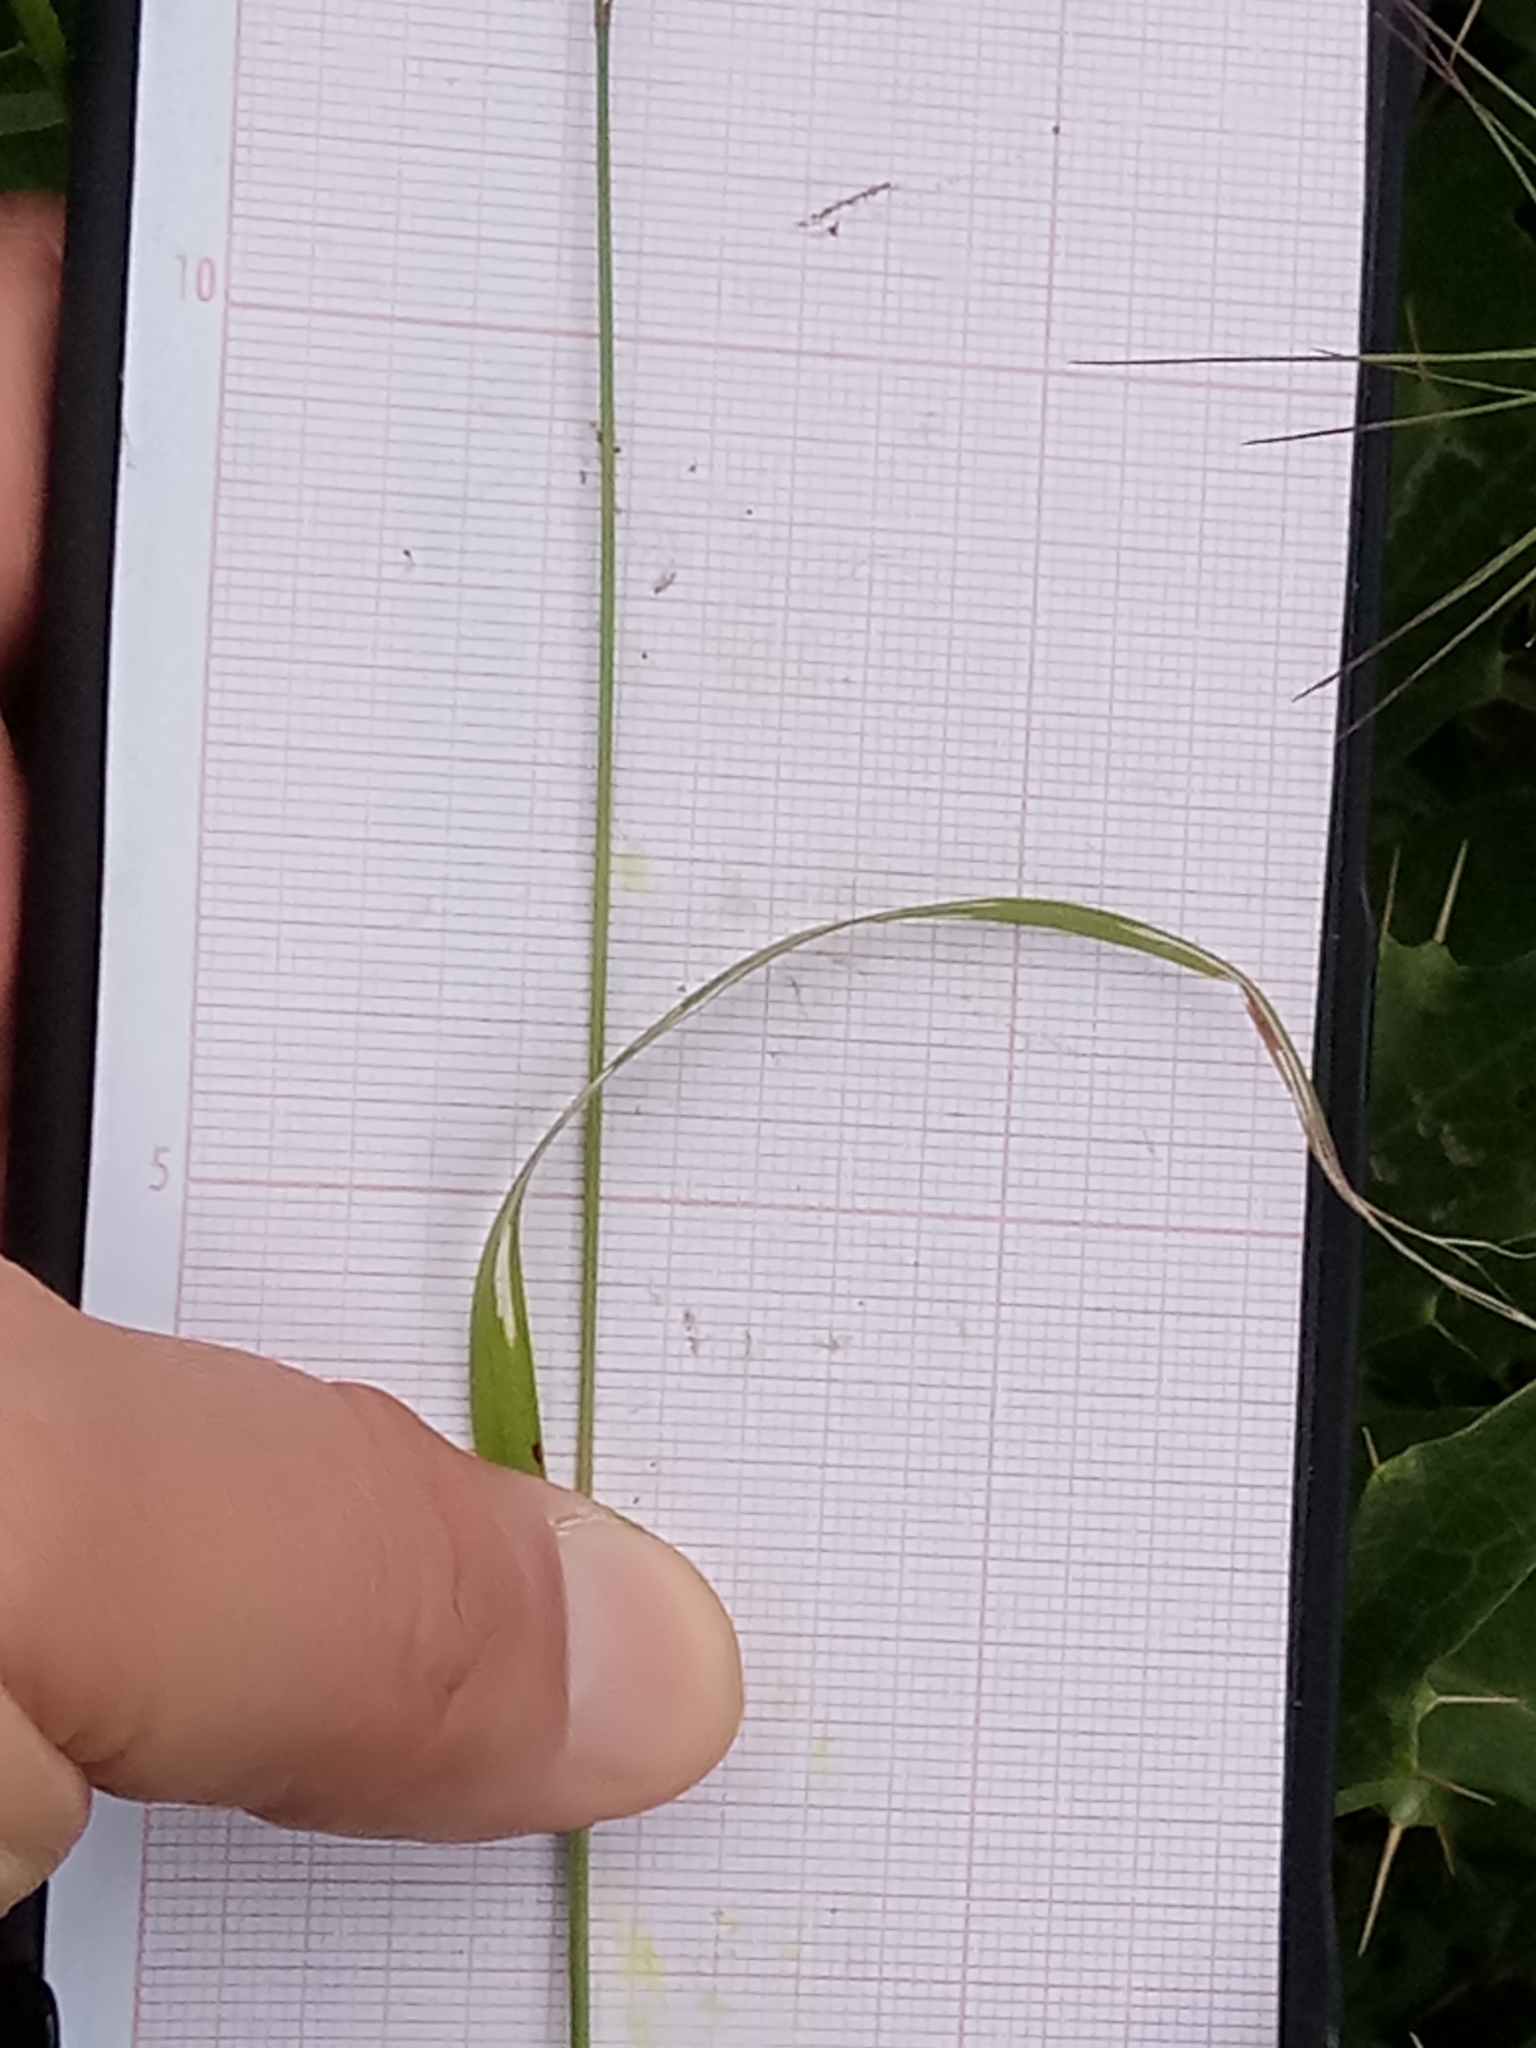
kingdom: Plantae
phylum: Tracheophyta
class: Liliopsida
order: Poales
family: Poaceae
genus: Bromus
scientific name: Bromus madritensis
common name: Compact brome
